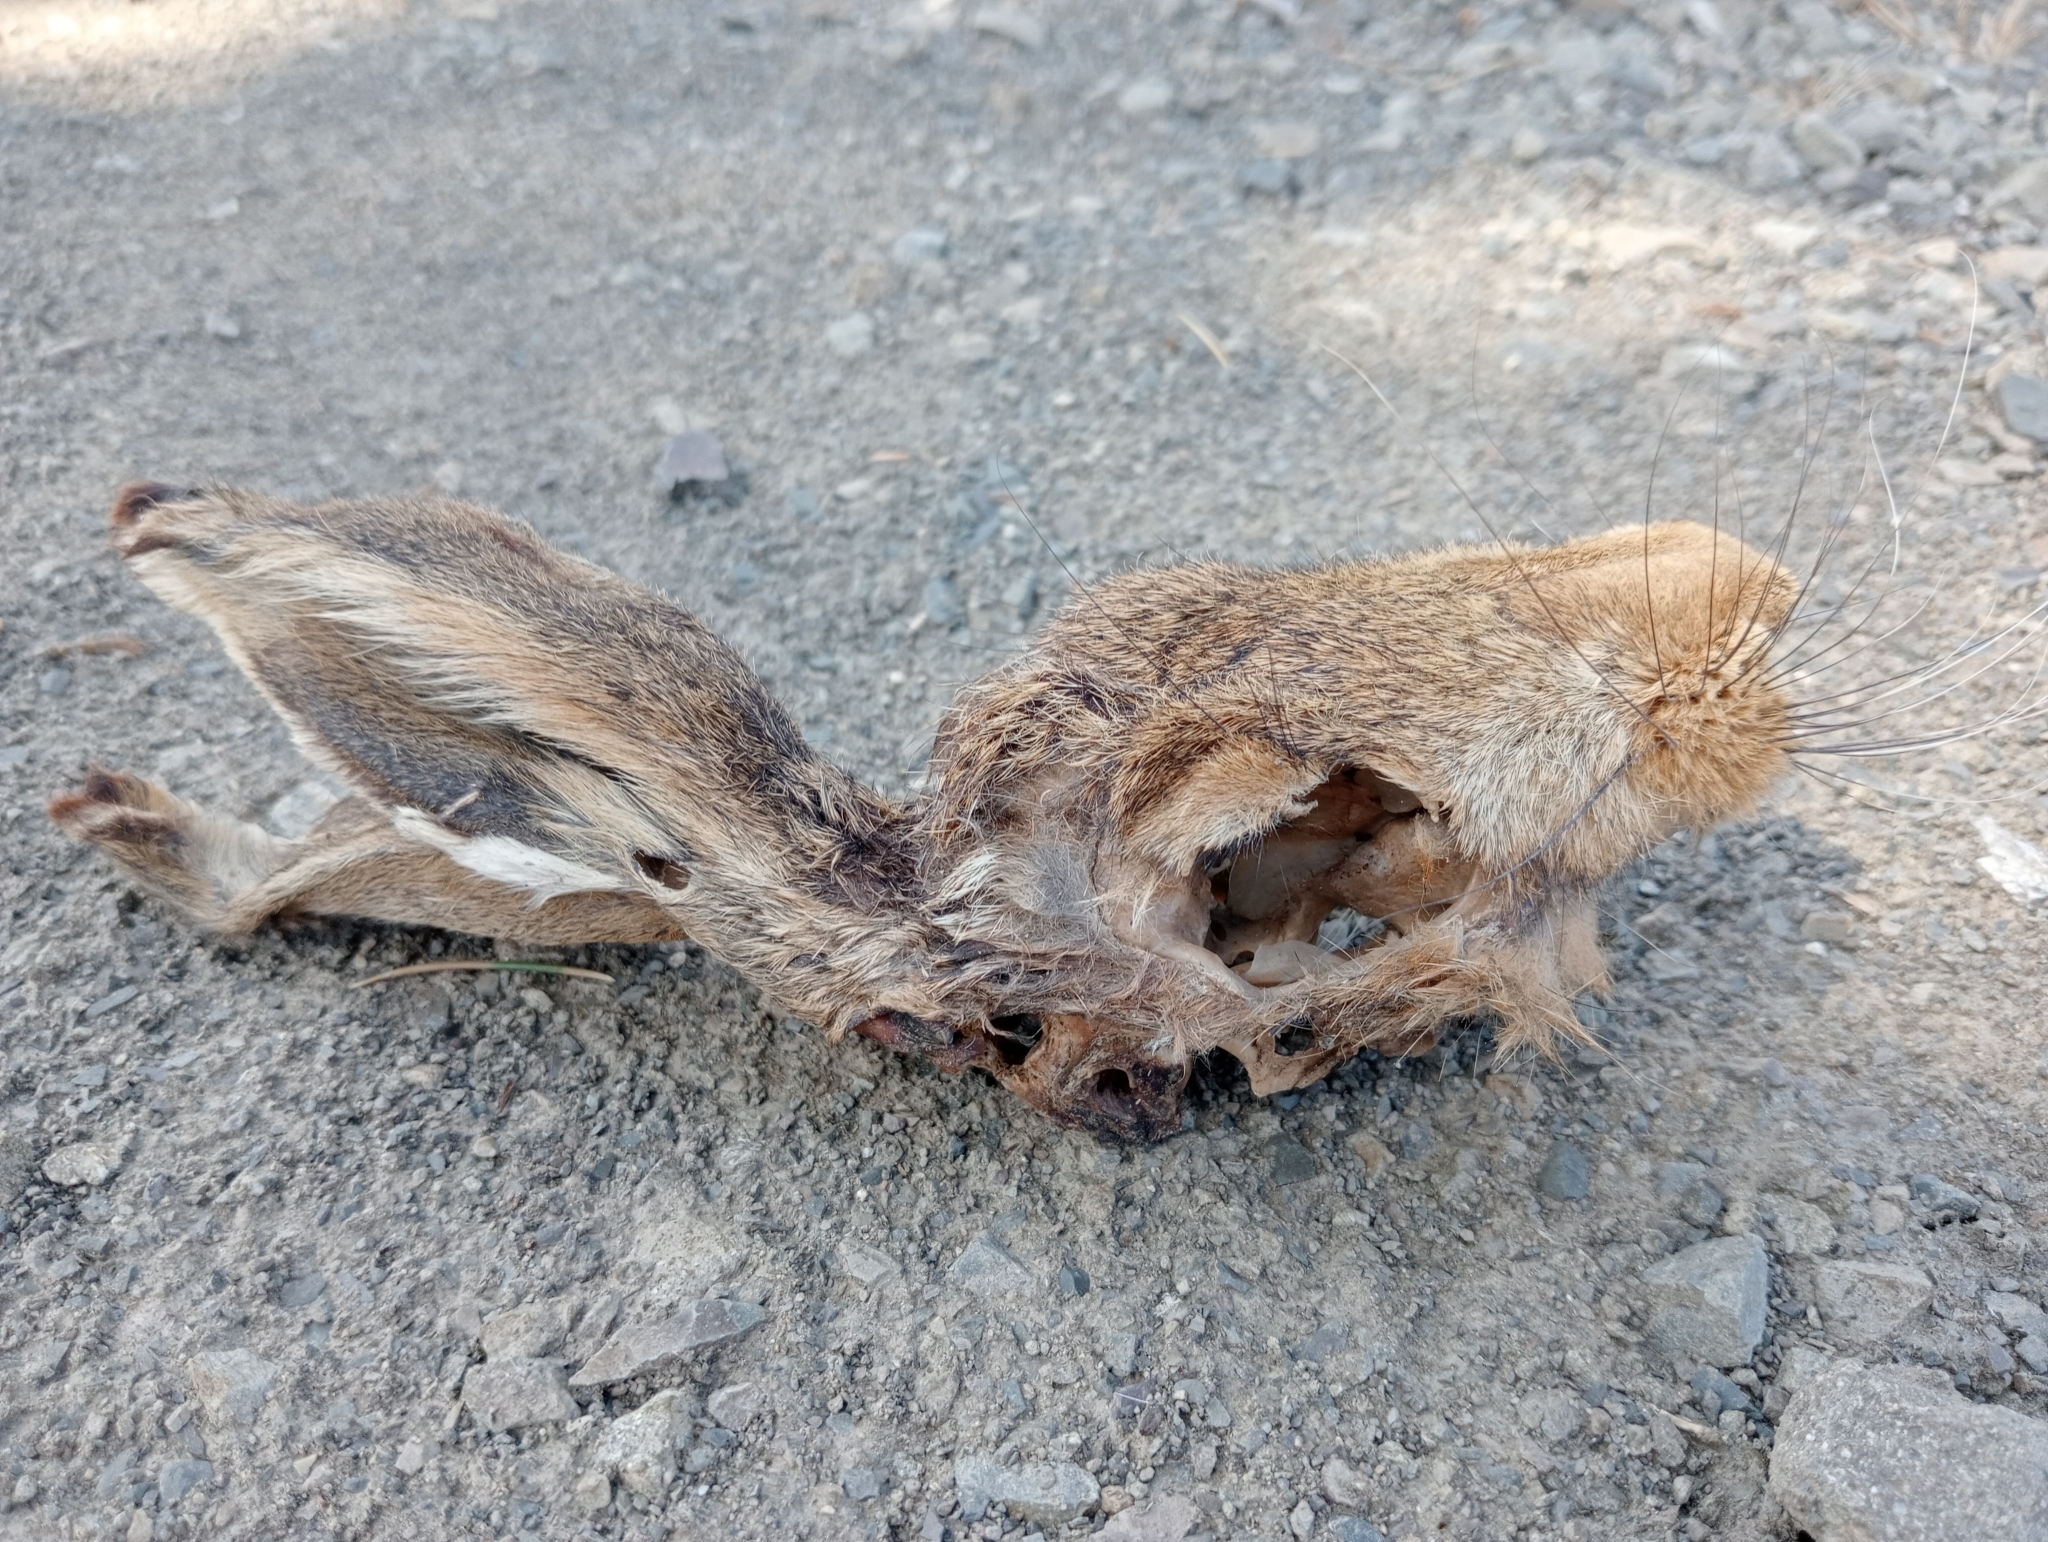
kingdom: Animalia
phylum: Chordata
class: Mammalia
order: Lagomorpha
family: Leporidae
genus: Lepus
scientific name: Lepus europaeus
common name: European hare
